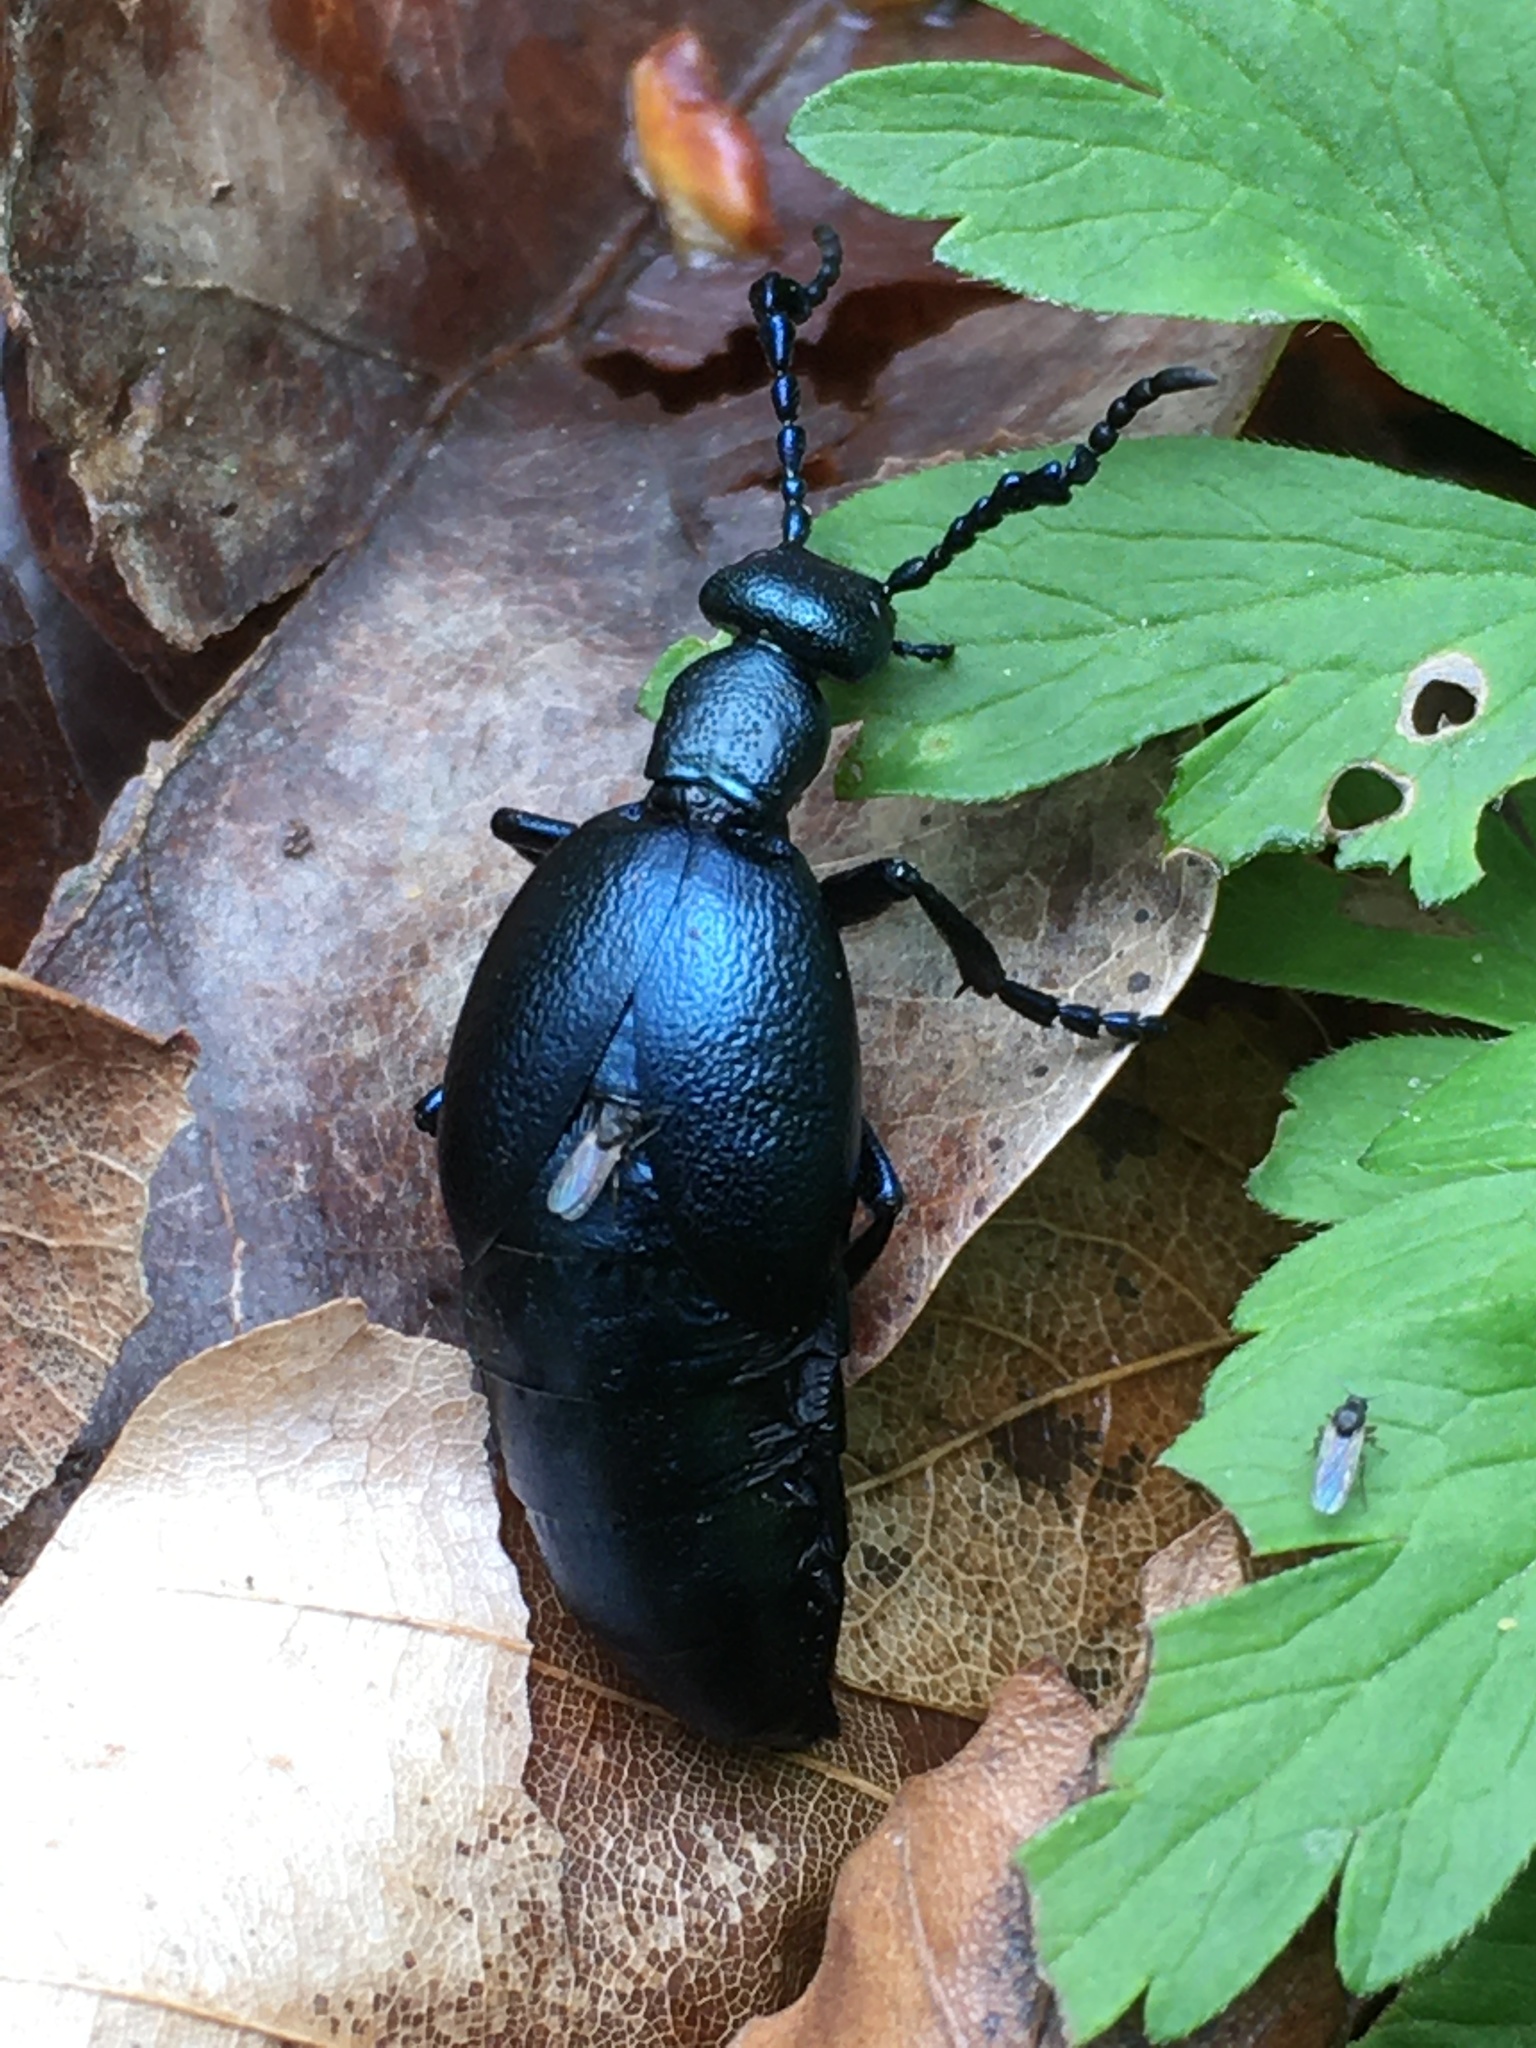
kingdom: Animalia
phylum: Arthropoda
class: Insecta
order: Coleoptera
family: Meloidae
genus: Meloe
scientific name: Meloe violaceus
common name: Violet oil-beetle
